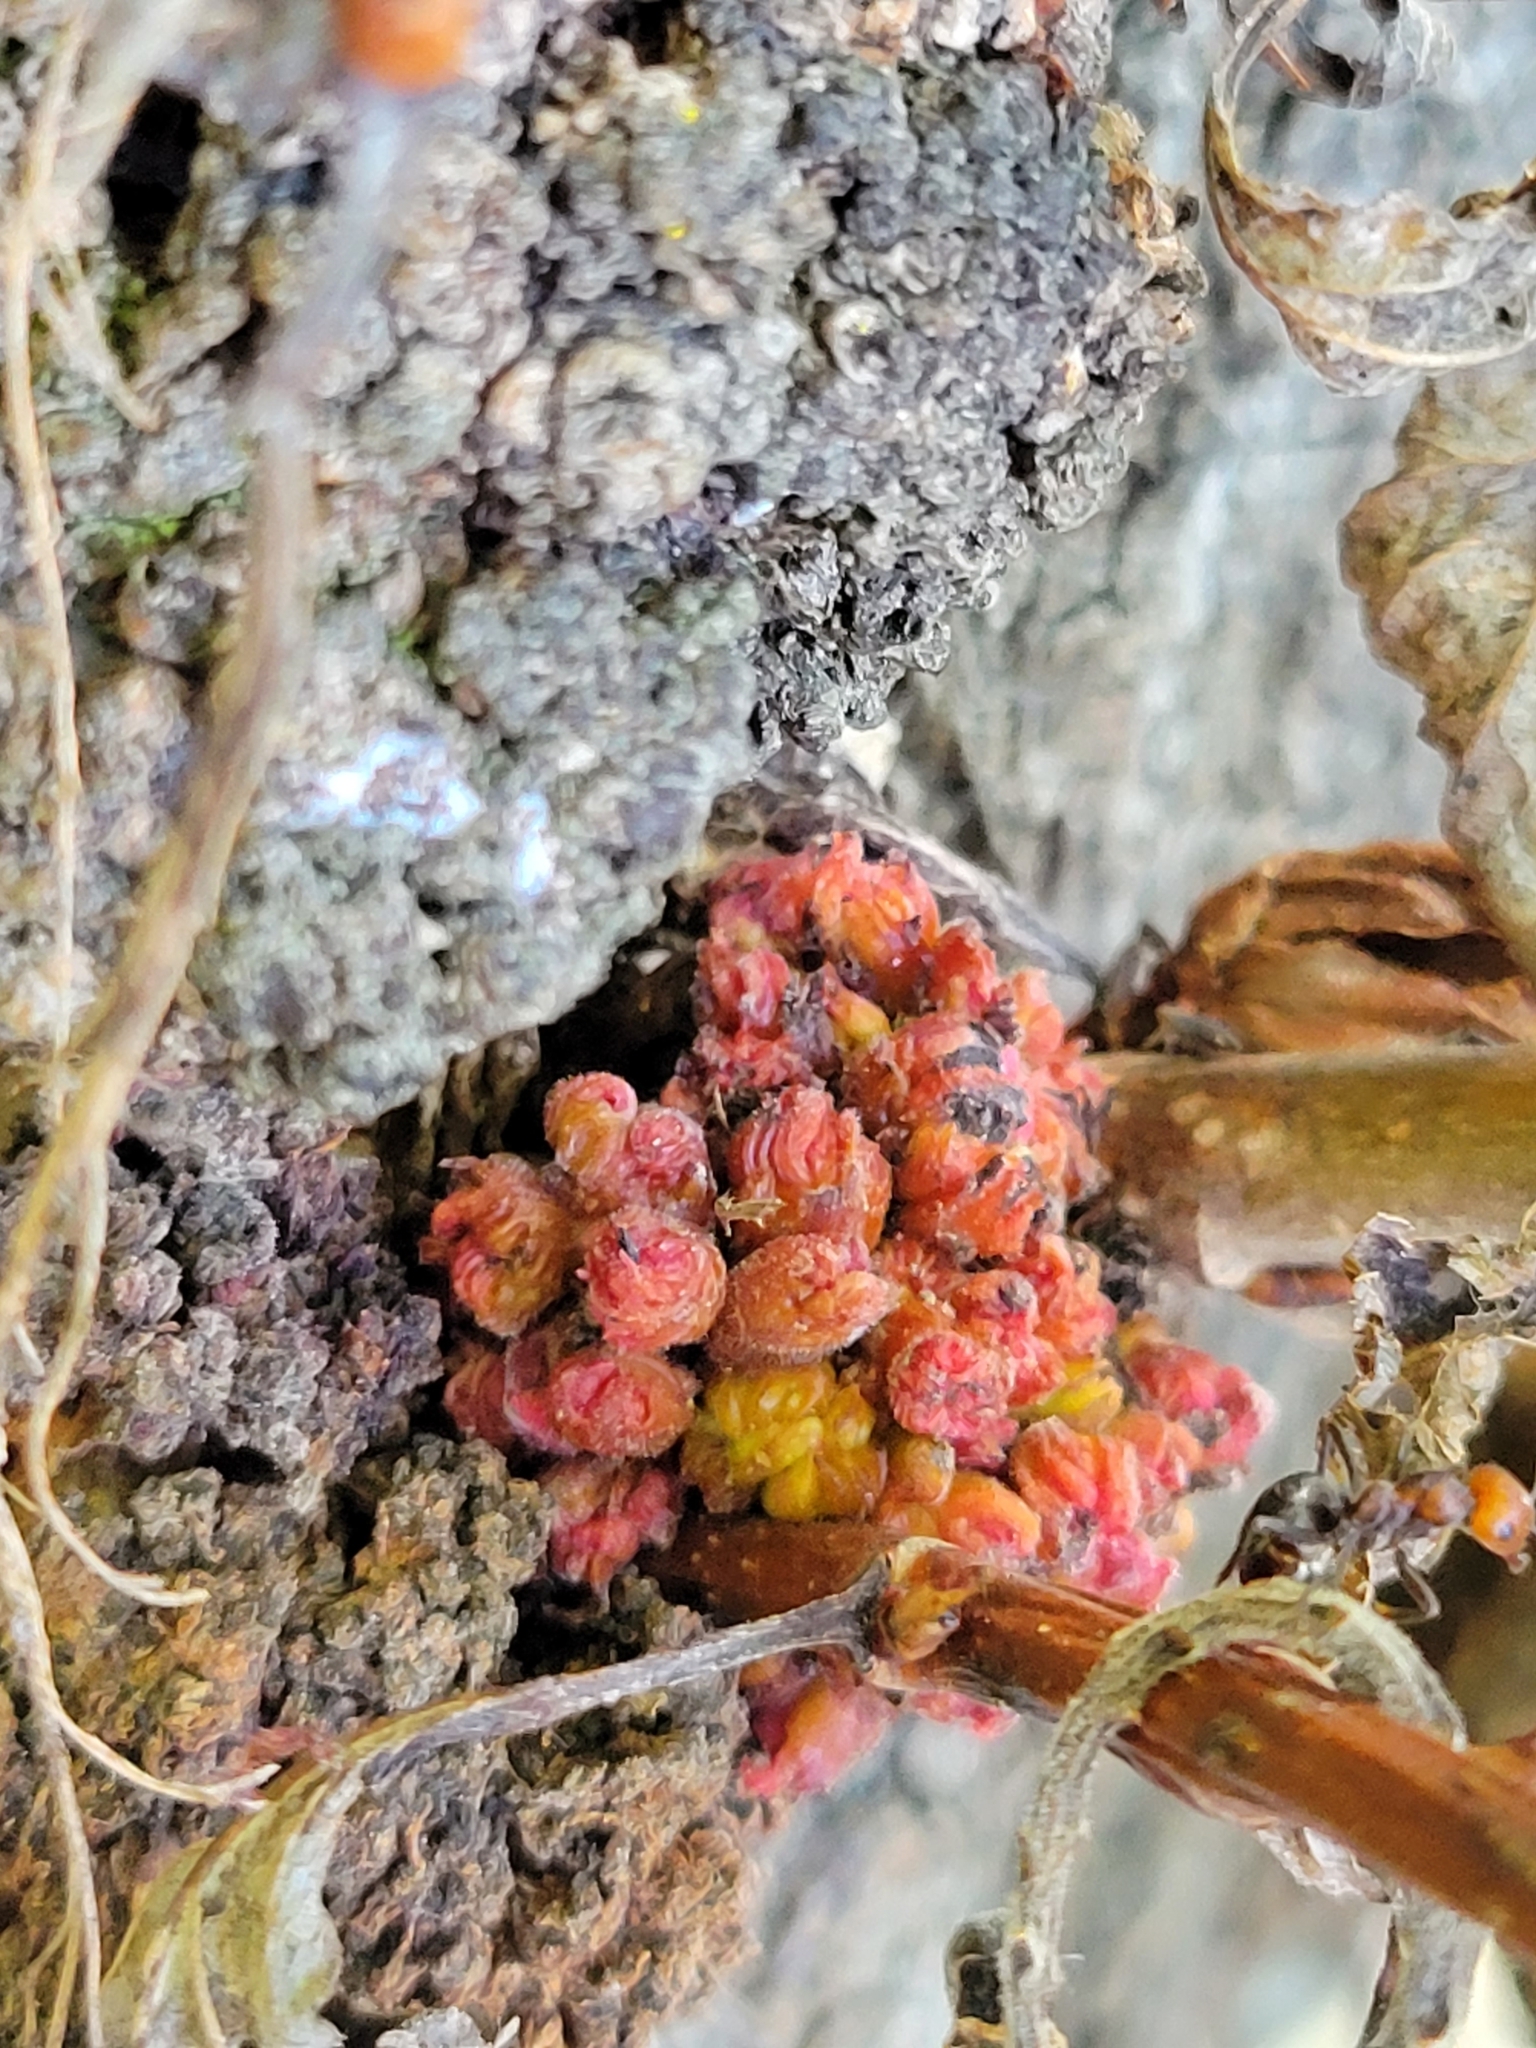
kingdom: Animalia
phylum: Arthropoda
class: Arachnida
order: Trombidiformes
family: Eriophyidae
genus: Aceria
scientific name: Aceria
